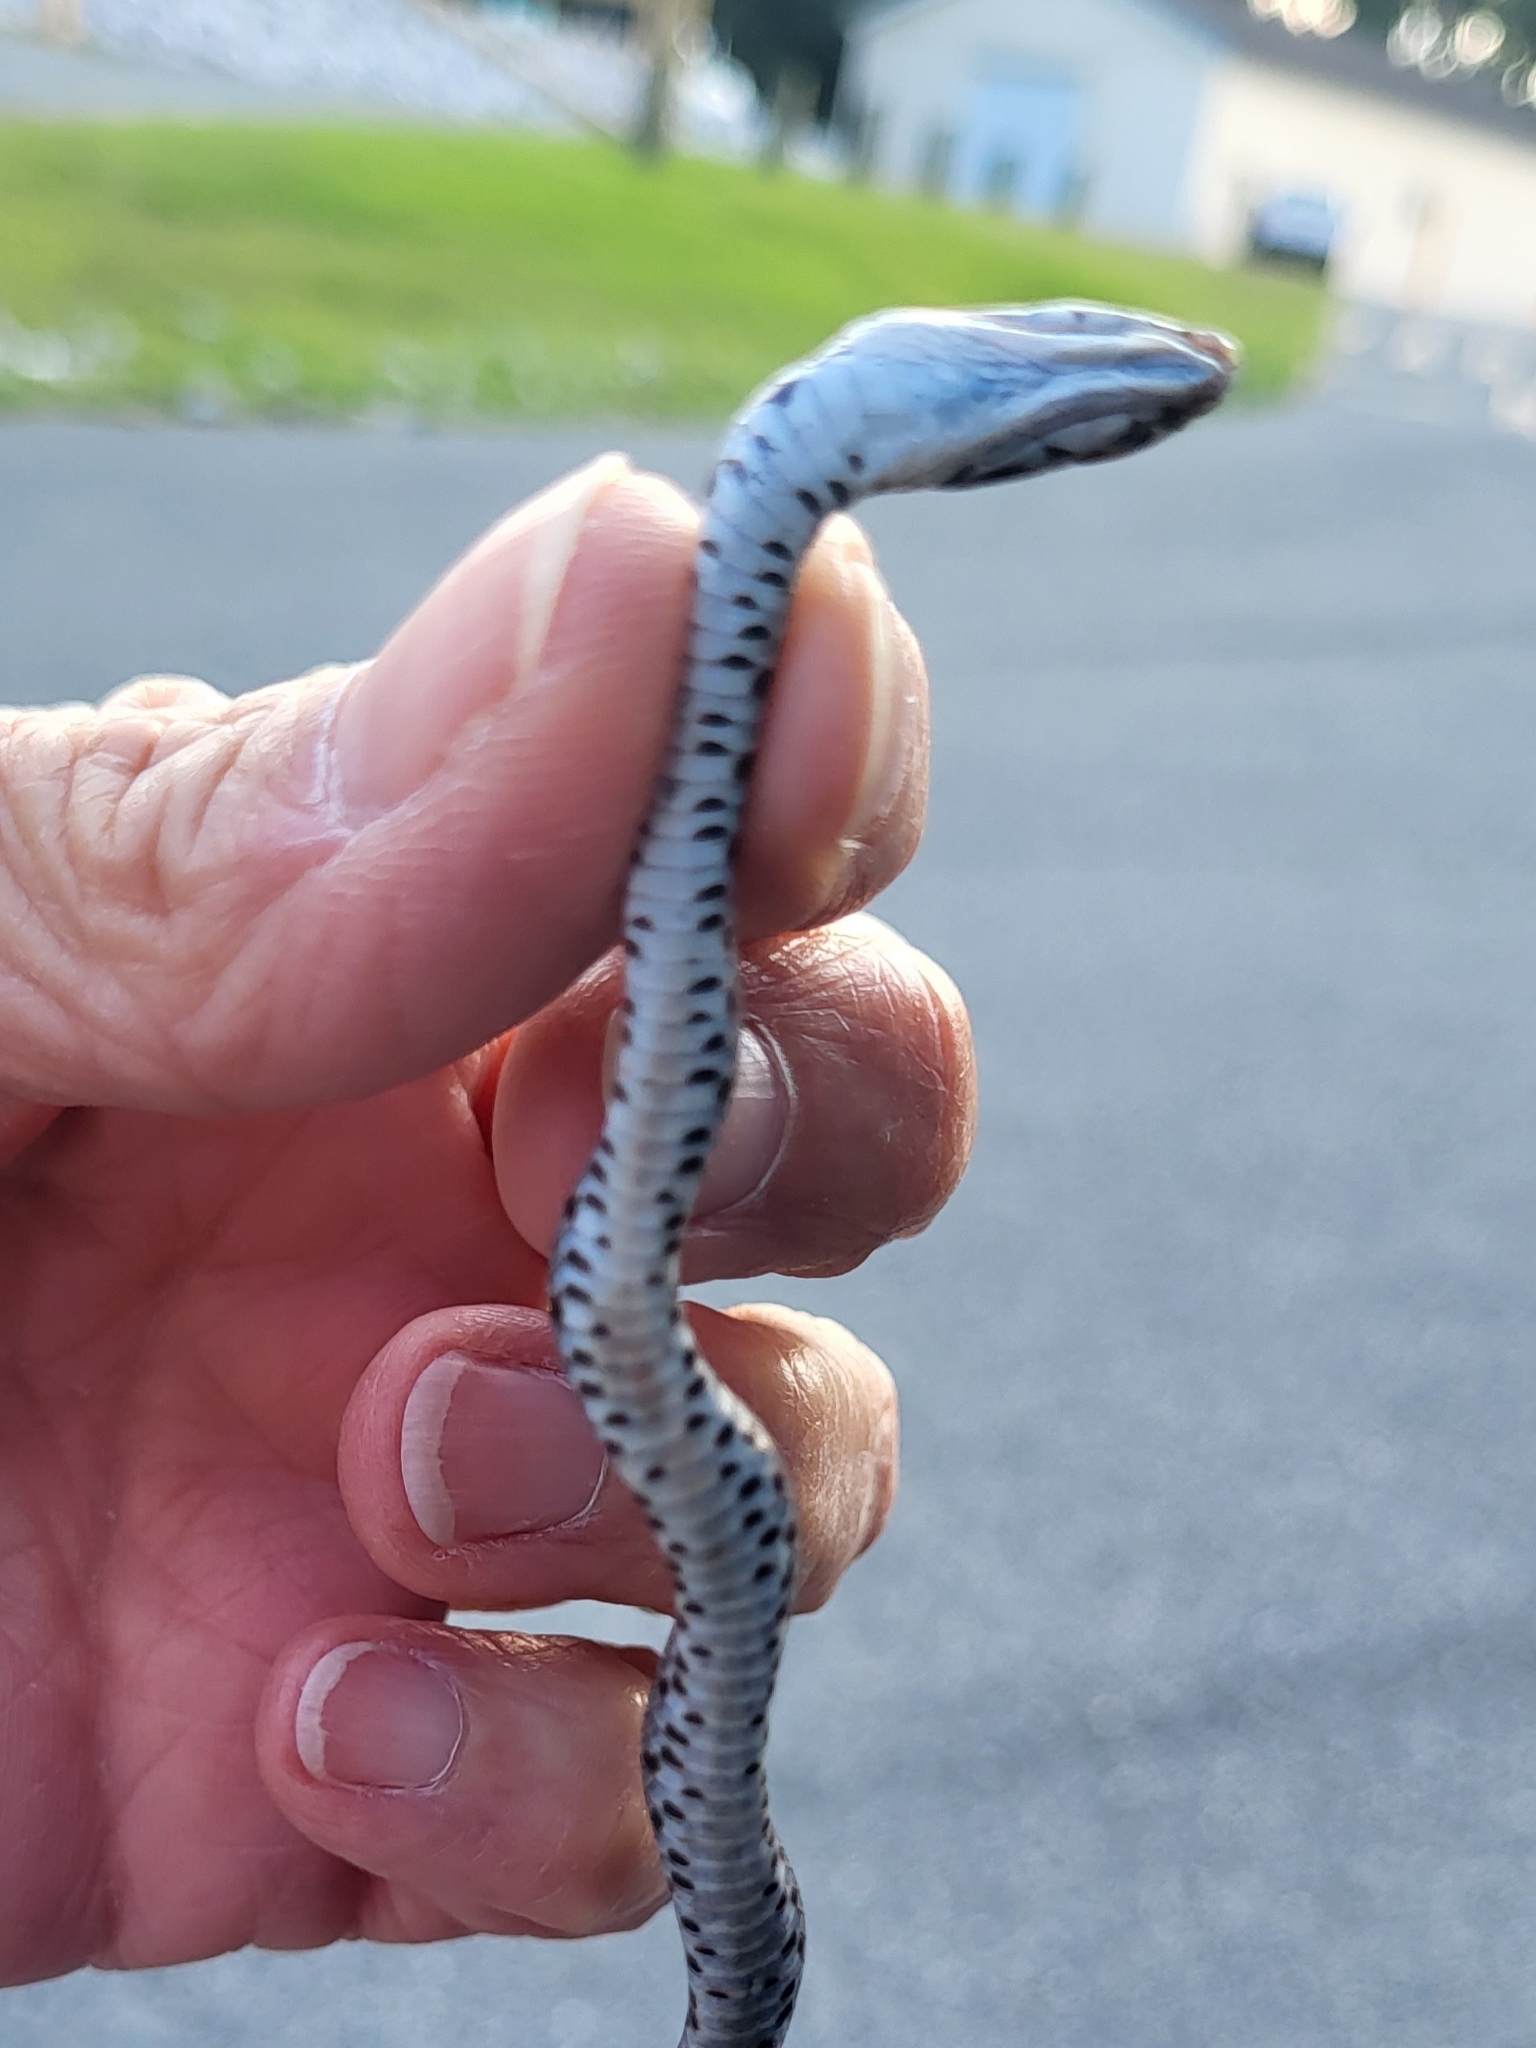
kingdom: Animalia
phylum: Chordata
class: Squamata
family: Colubridae
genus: Coluber
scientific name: Coluber constrictor
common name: Eastern racer
